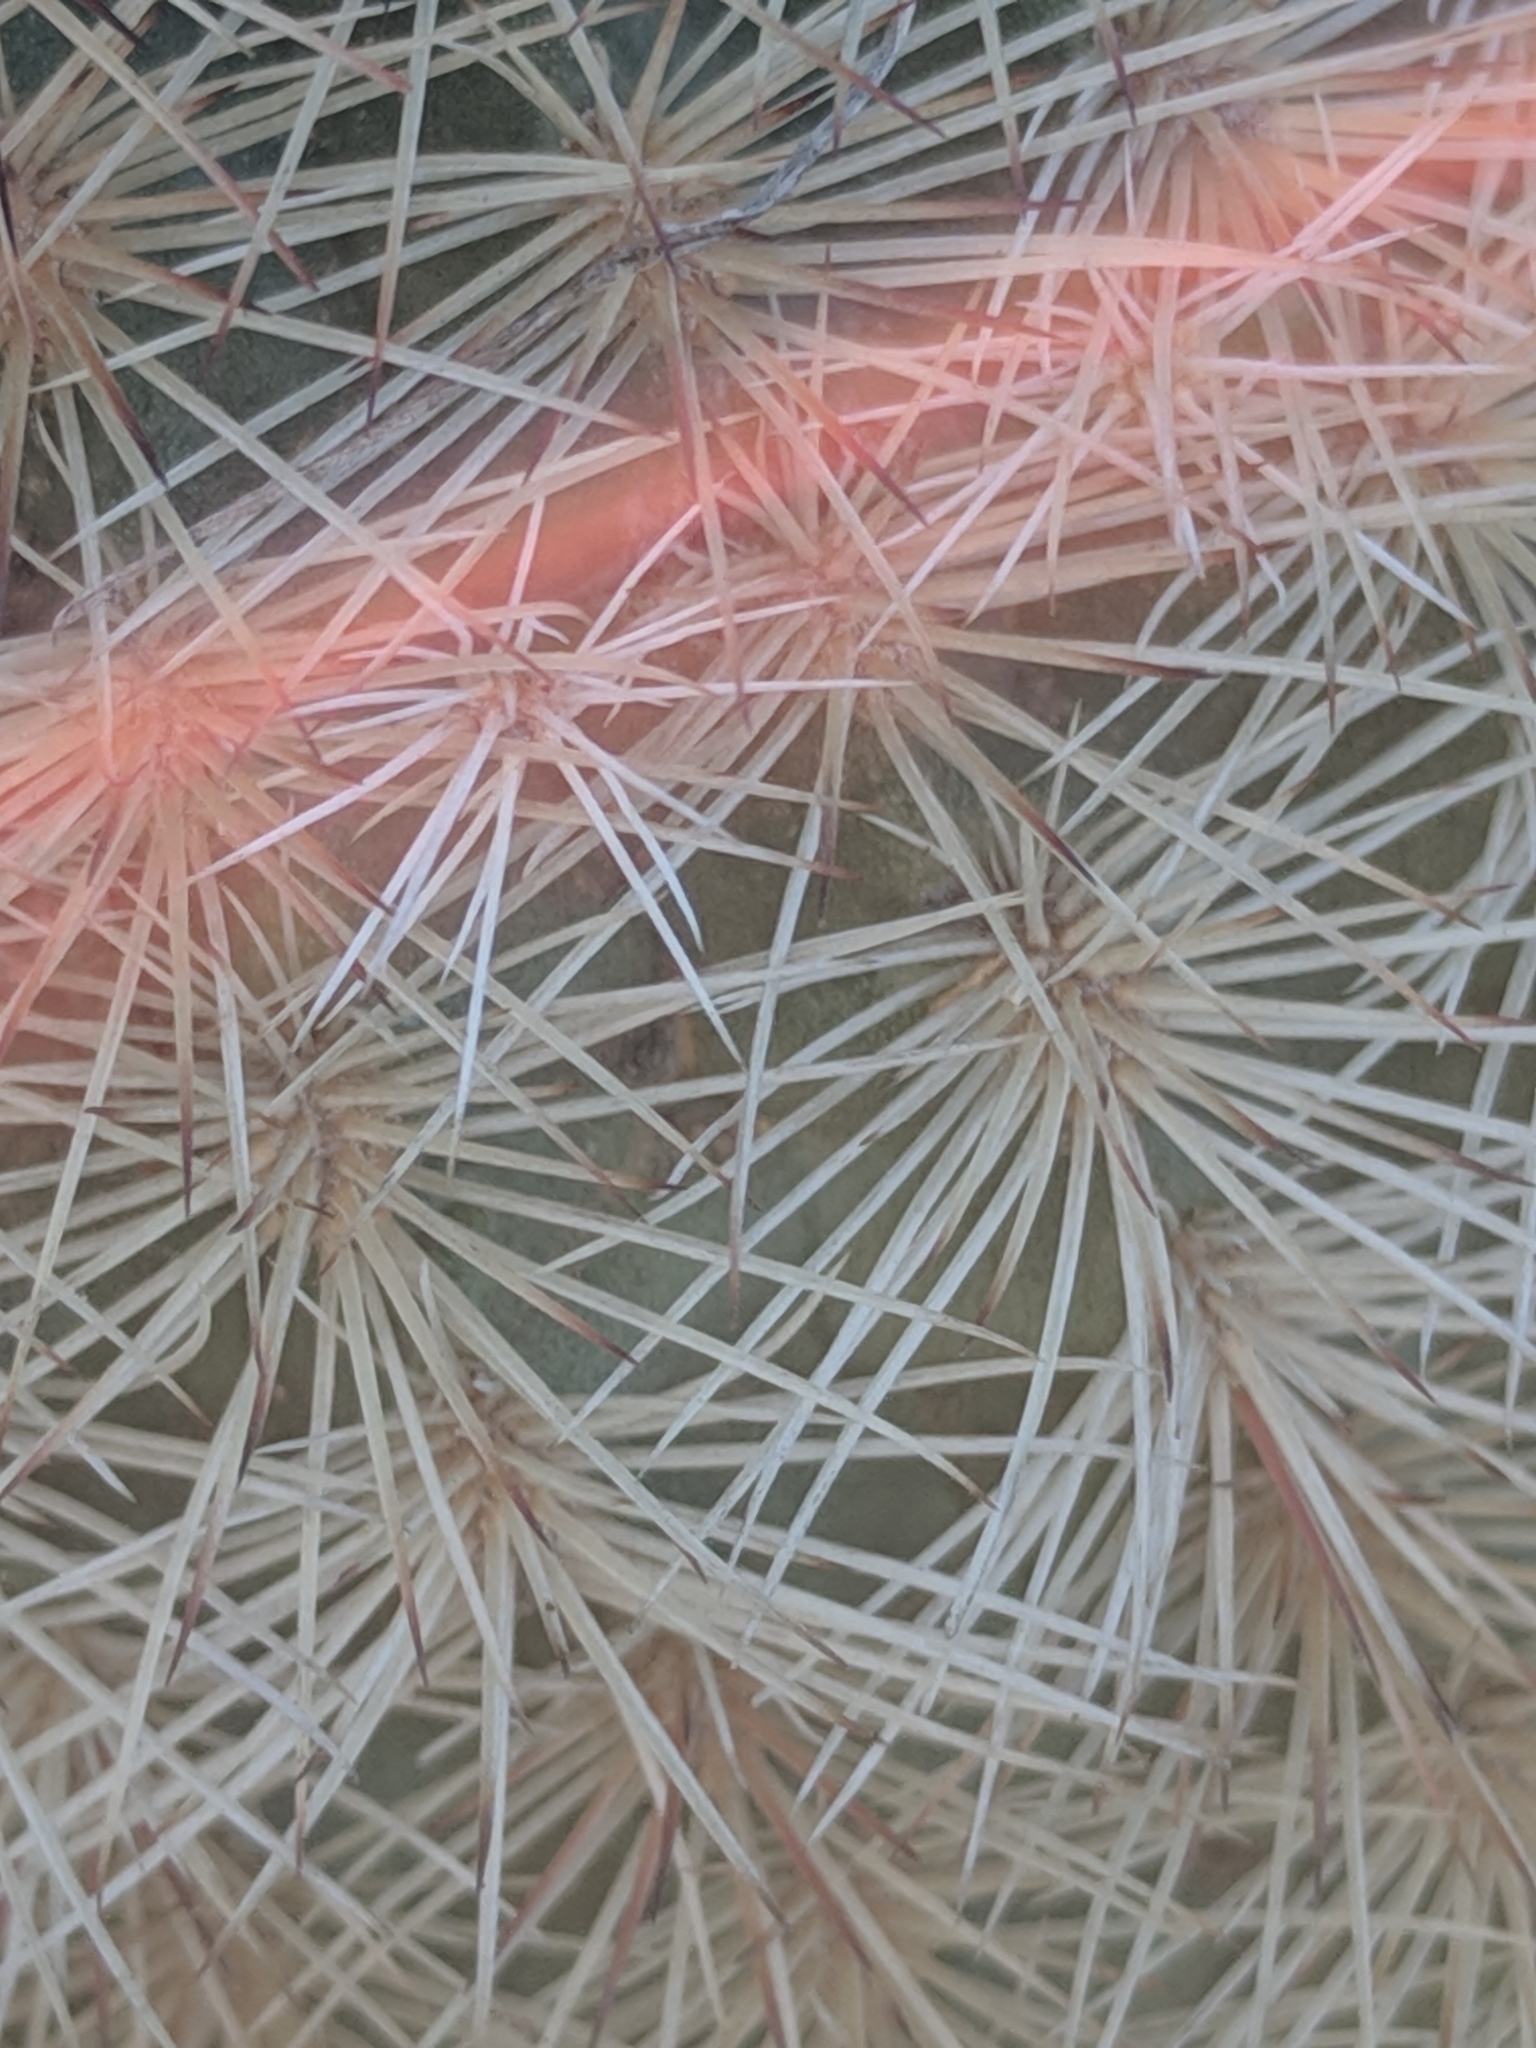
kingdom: Plantae
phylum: Tracheophyta
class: Magnoliopsida
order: Caryophyllales
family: Cactaceae
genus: Echinocereus
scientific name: Echinocereus dasyacanthus
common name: Spiny hedgehog cactus
